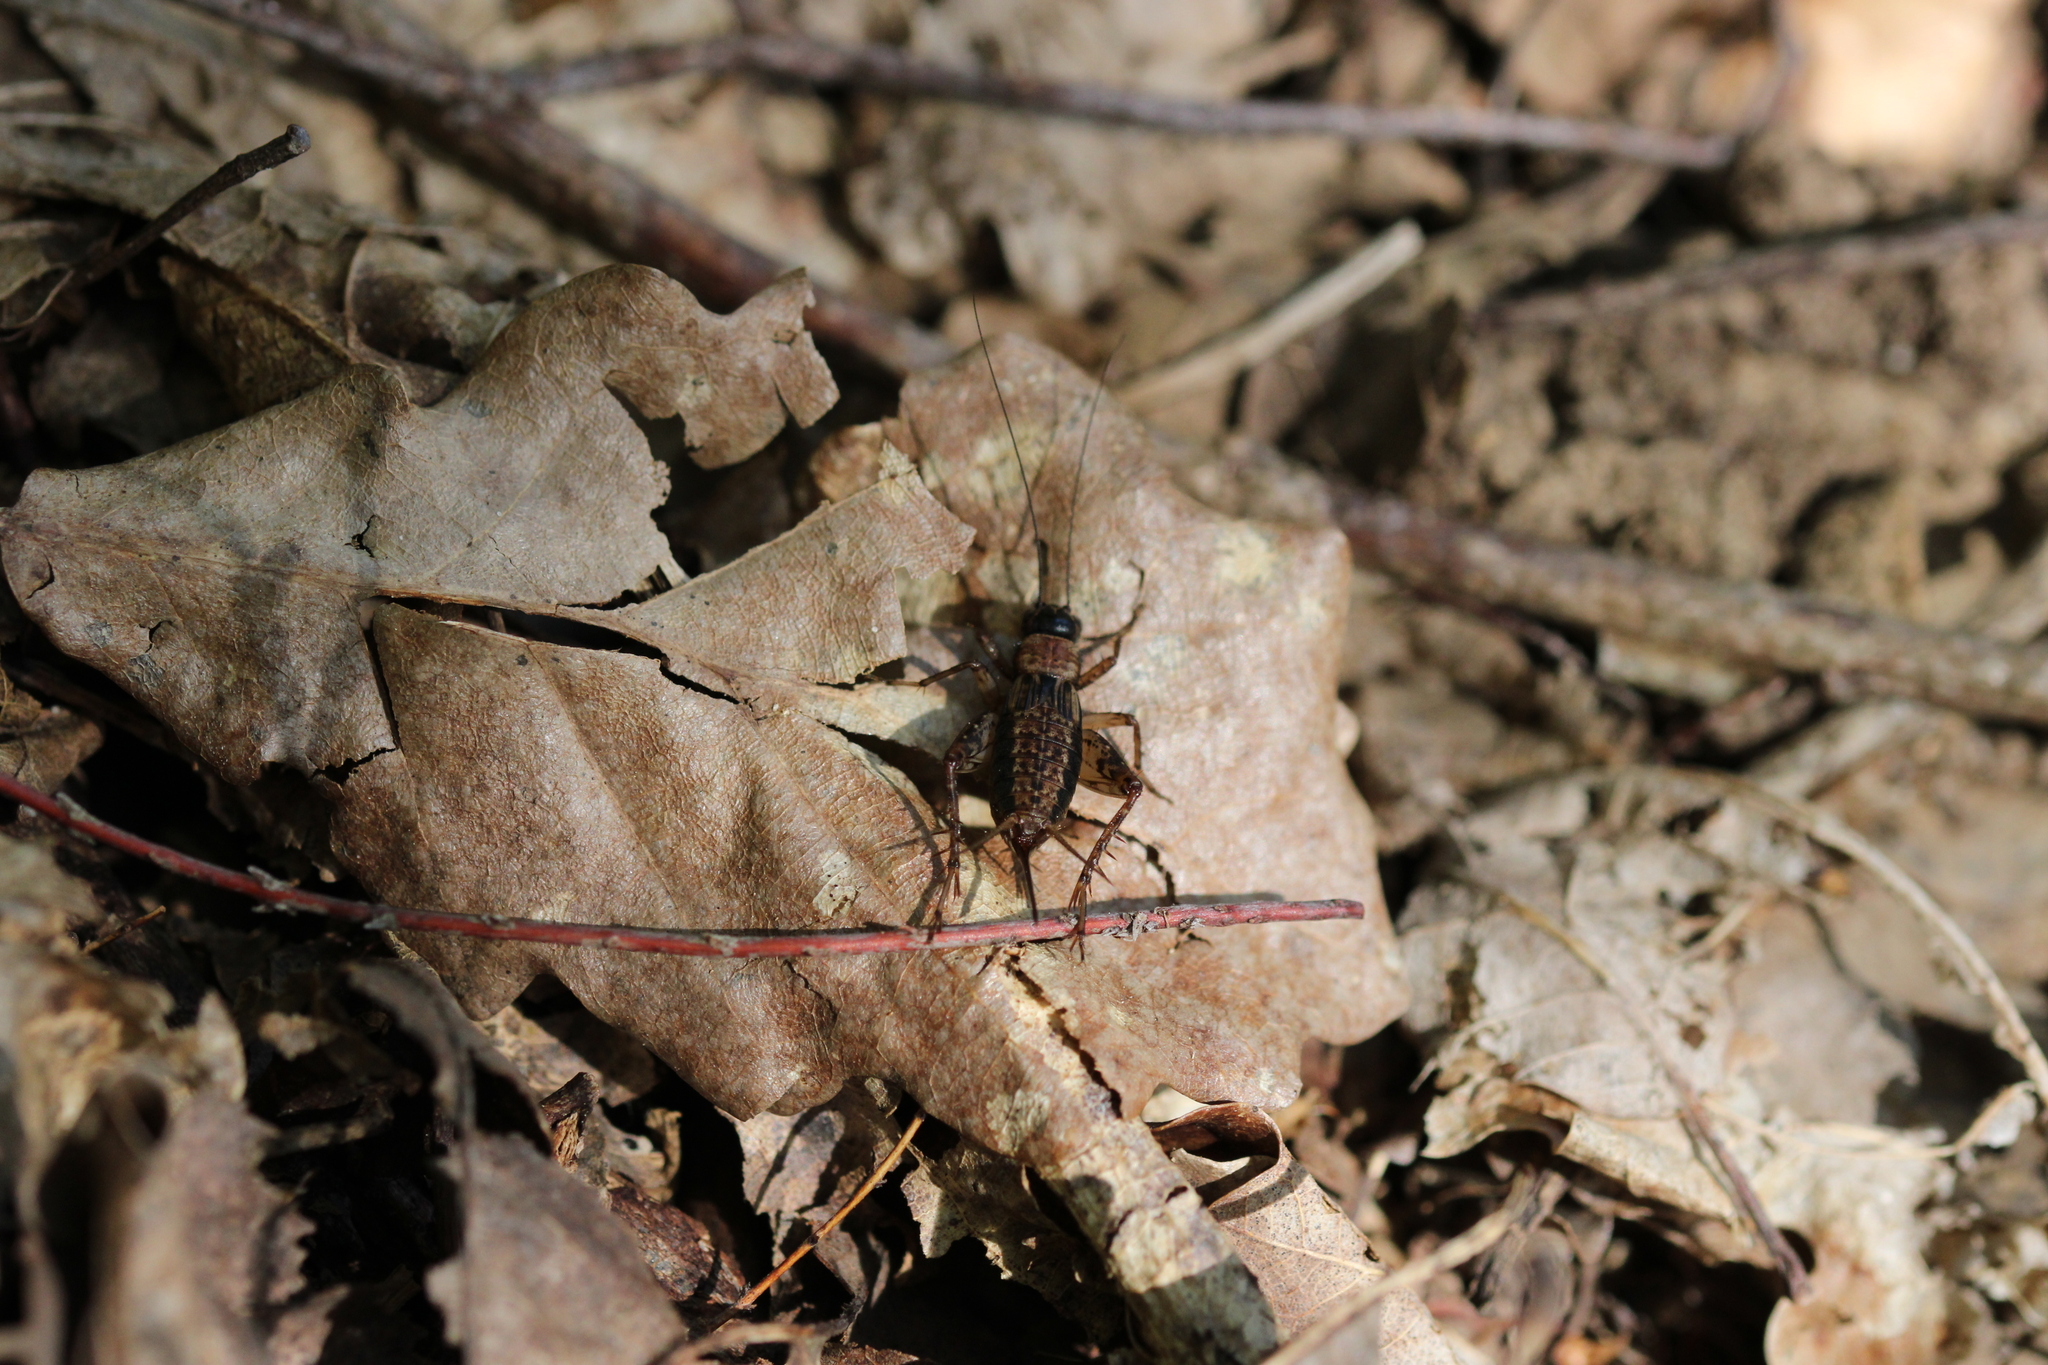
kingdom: Animalia
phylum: Arthropoda
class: Insecta
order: Orthoptera
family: Trigonidiidae
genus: Nemobius
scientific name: Nemobius sylvestris
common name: Wood-cricket
